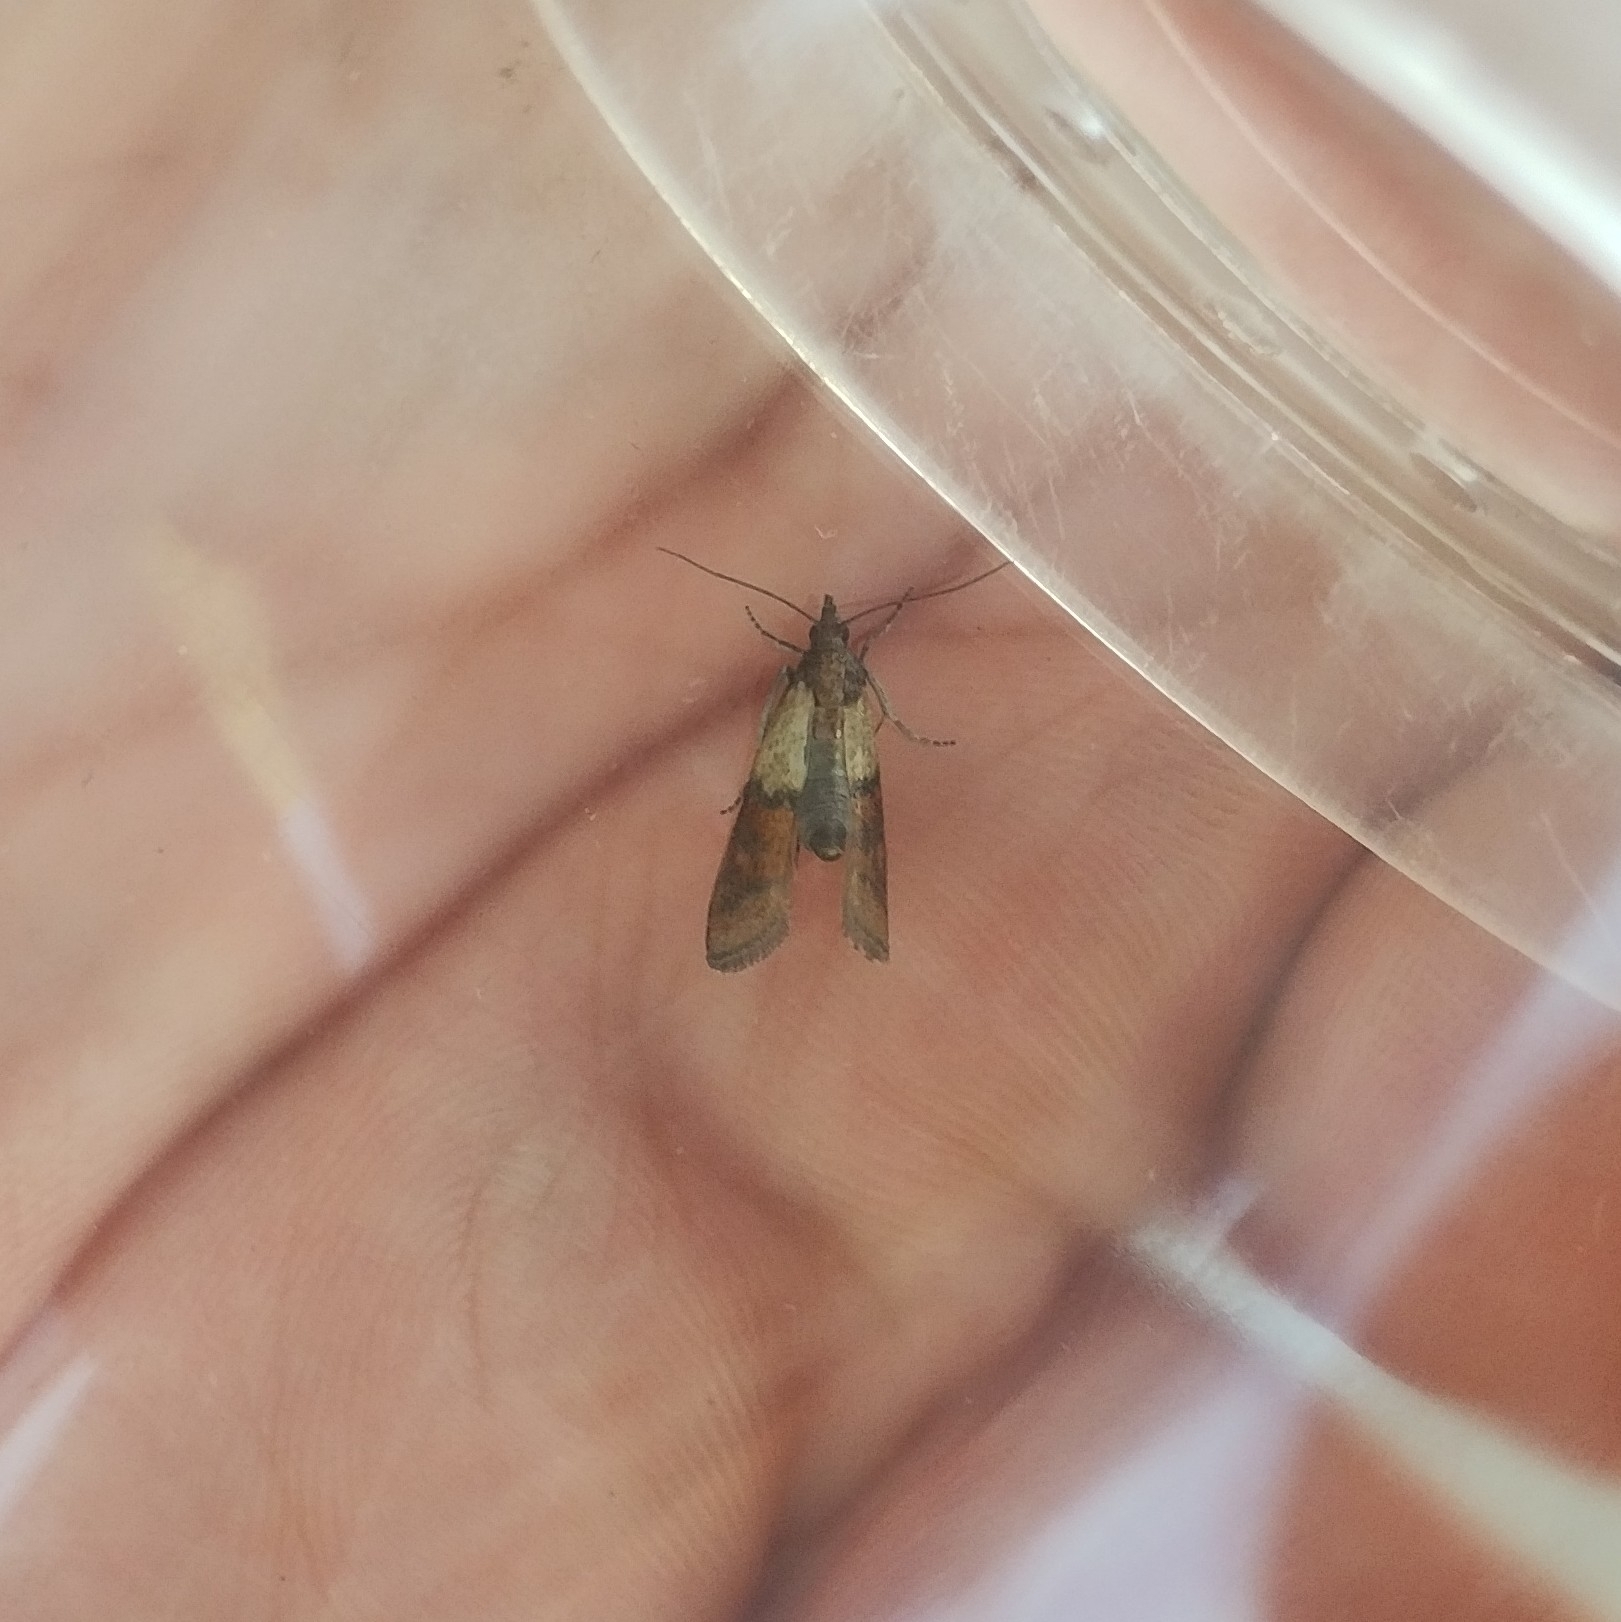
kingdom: Animalia
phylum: Arthropoda
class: Insecta
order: Lepidoptera
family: Pyralidae
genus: Plodia
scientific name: Plodia interpunctella
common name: Indian meal moth
